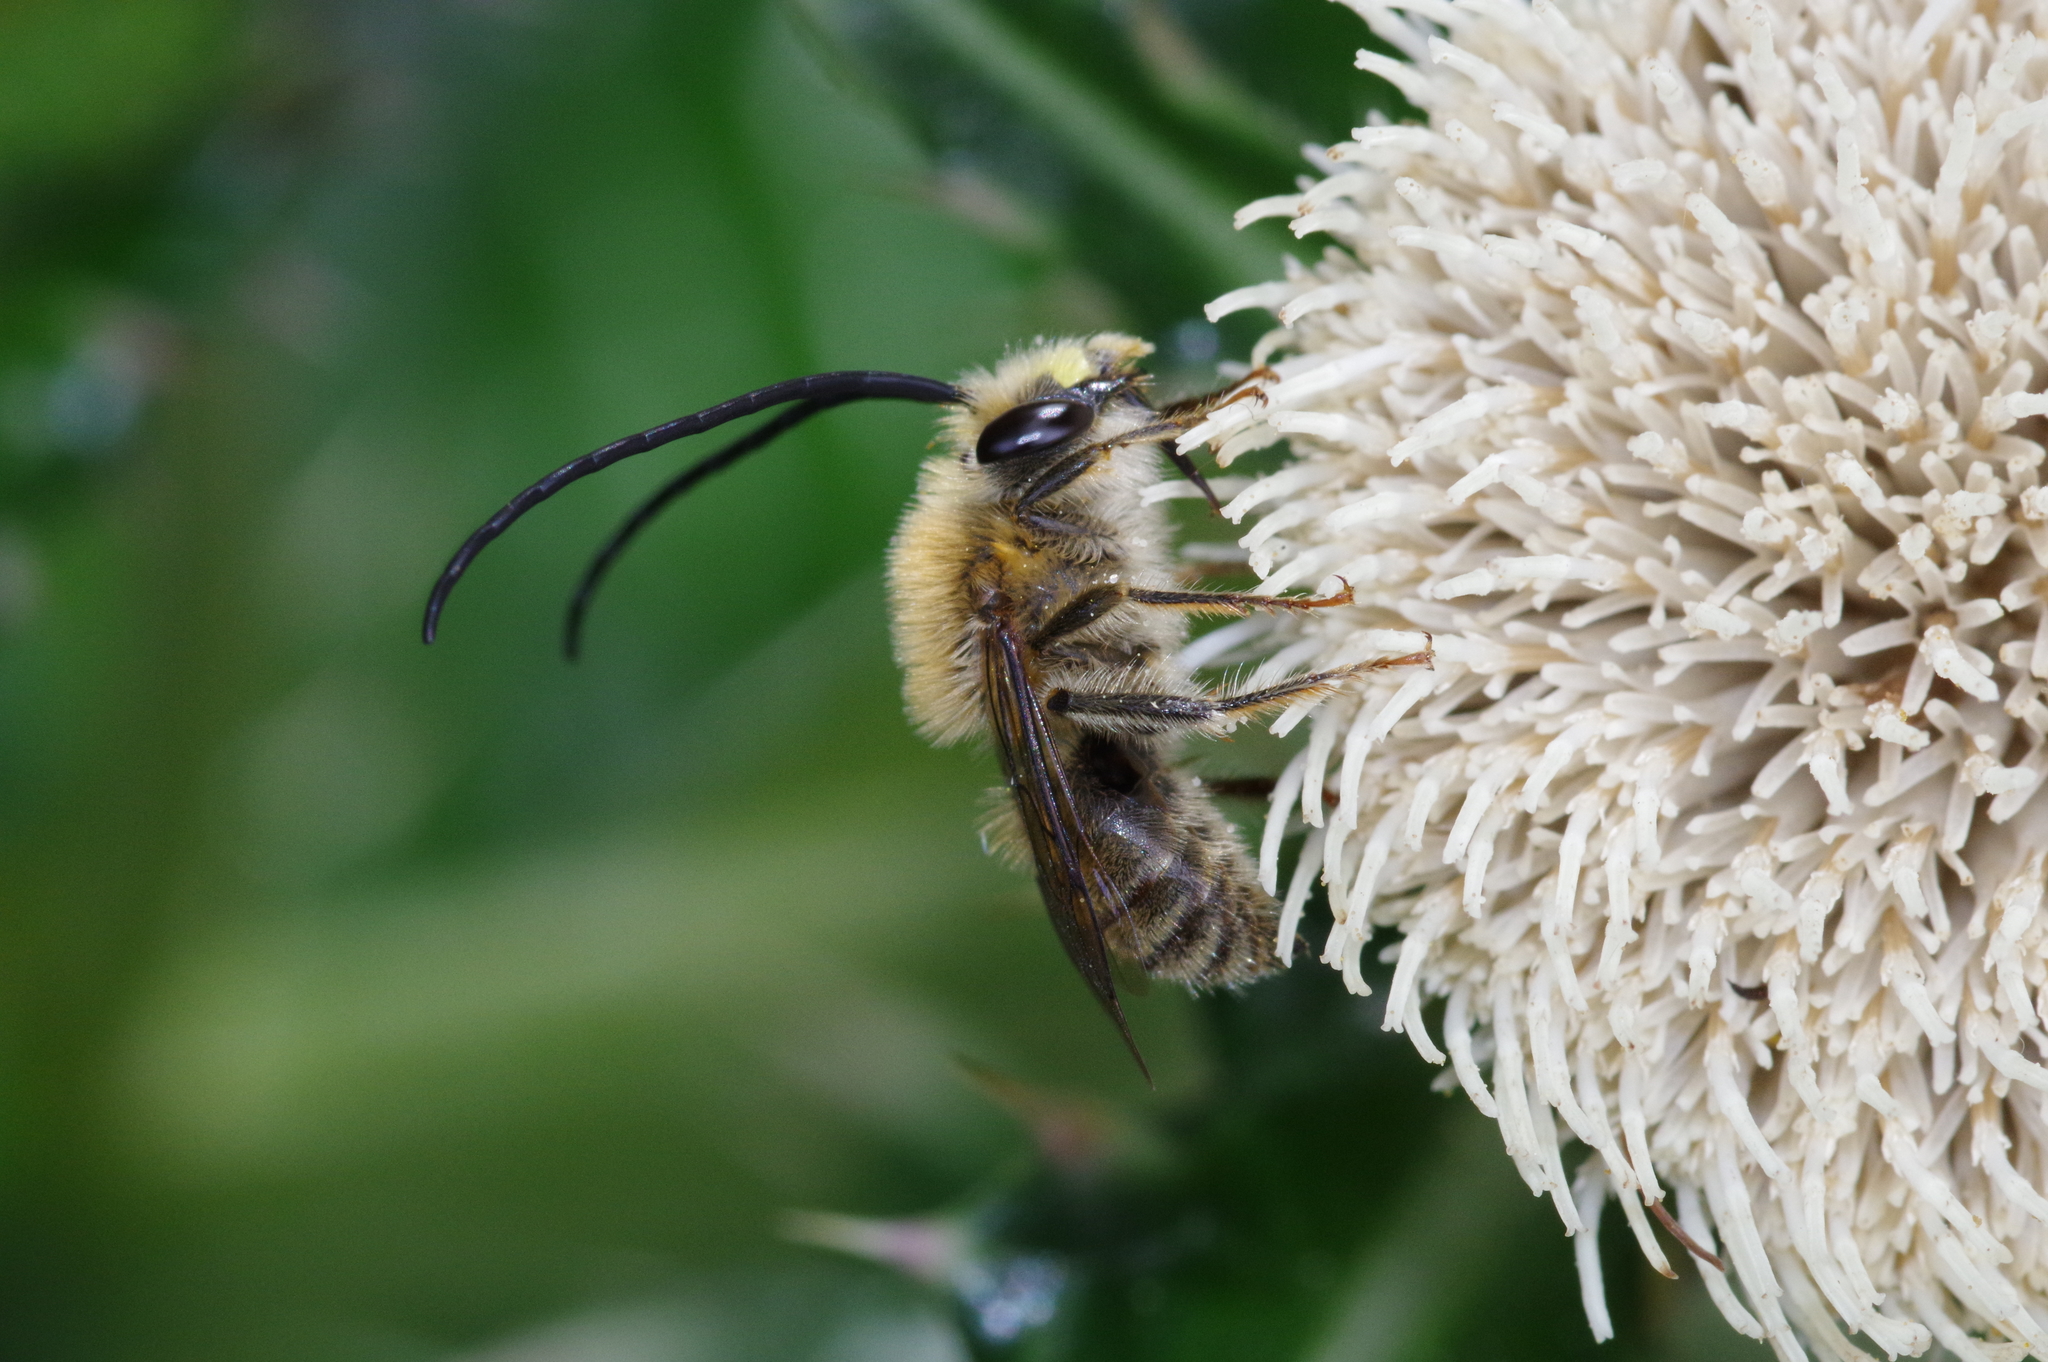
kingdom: Animalia
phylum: Arthropoda
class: Insecta
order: Hymenoptera
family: Apidae
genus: Eucera
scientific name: Eucera okinawae
